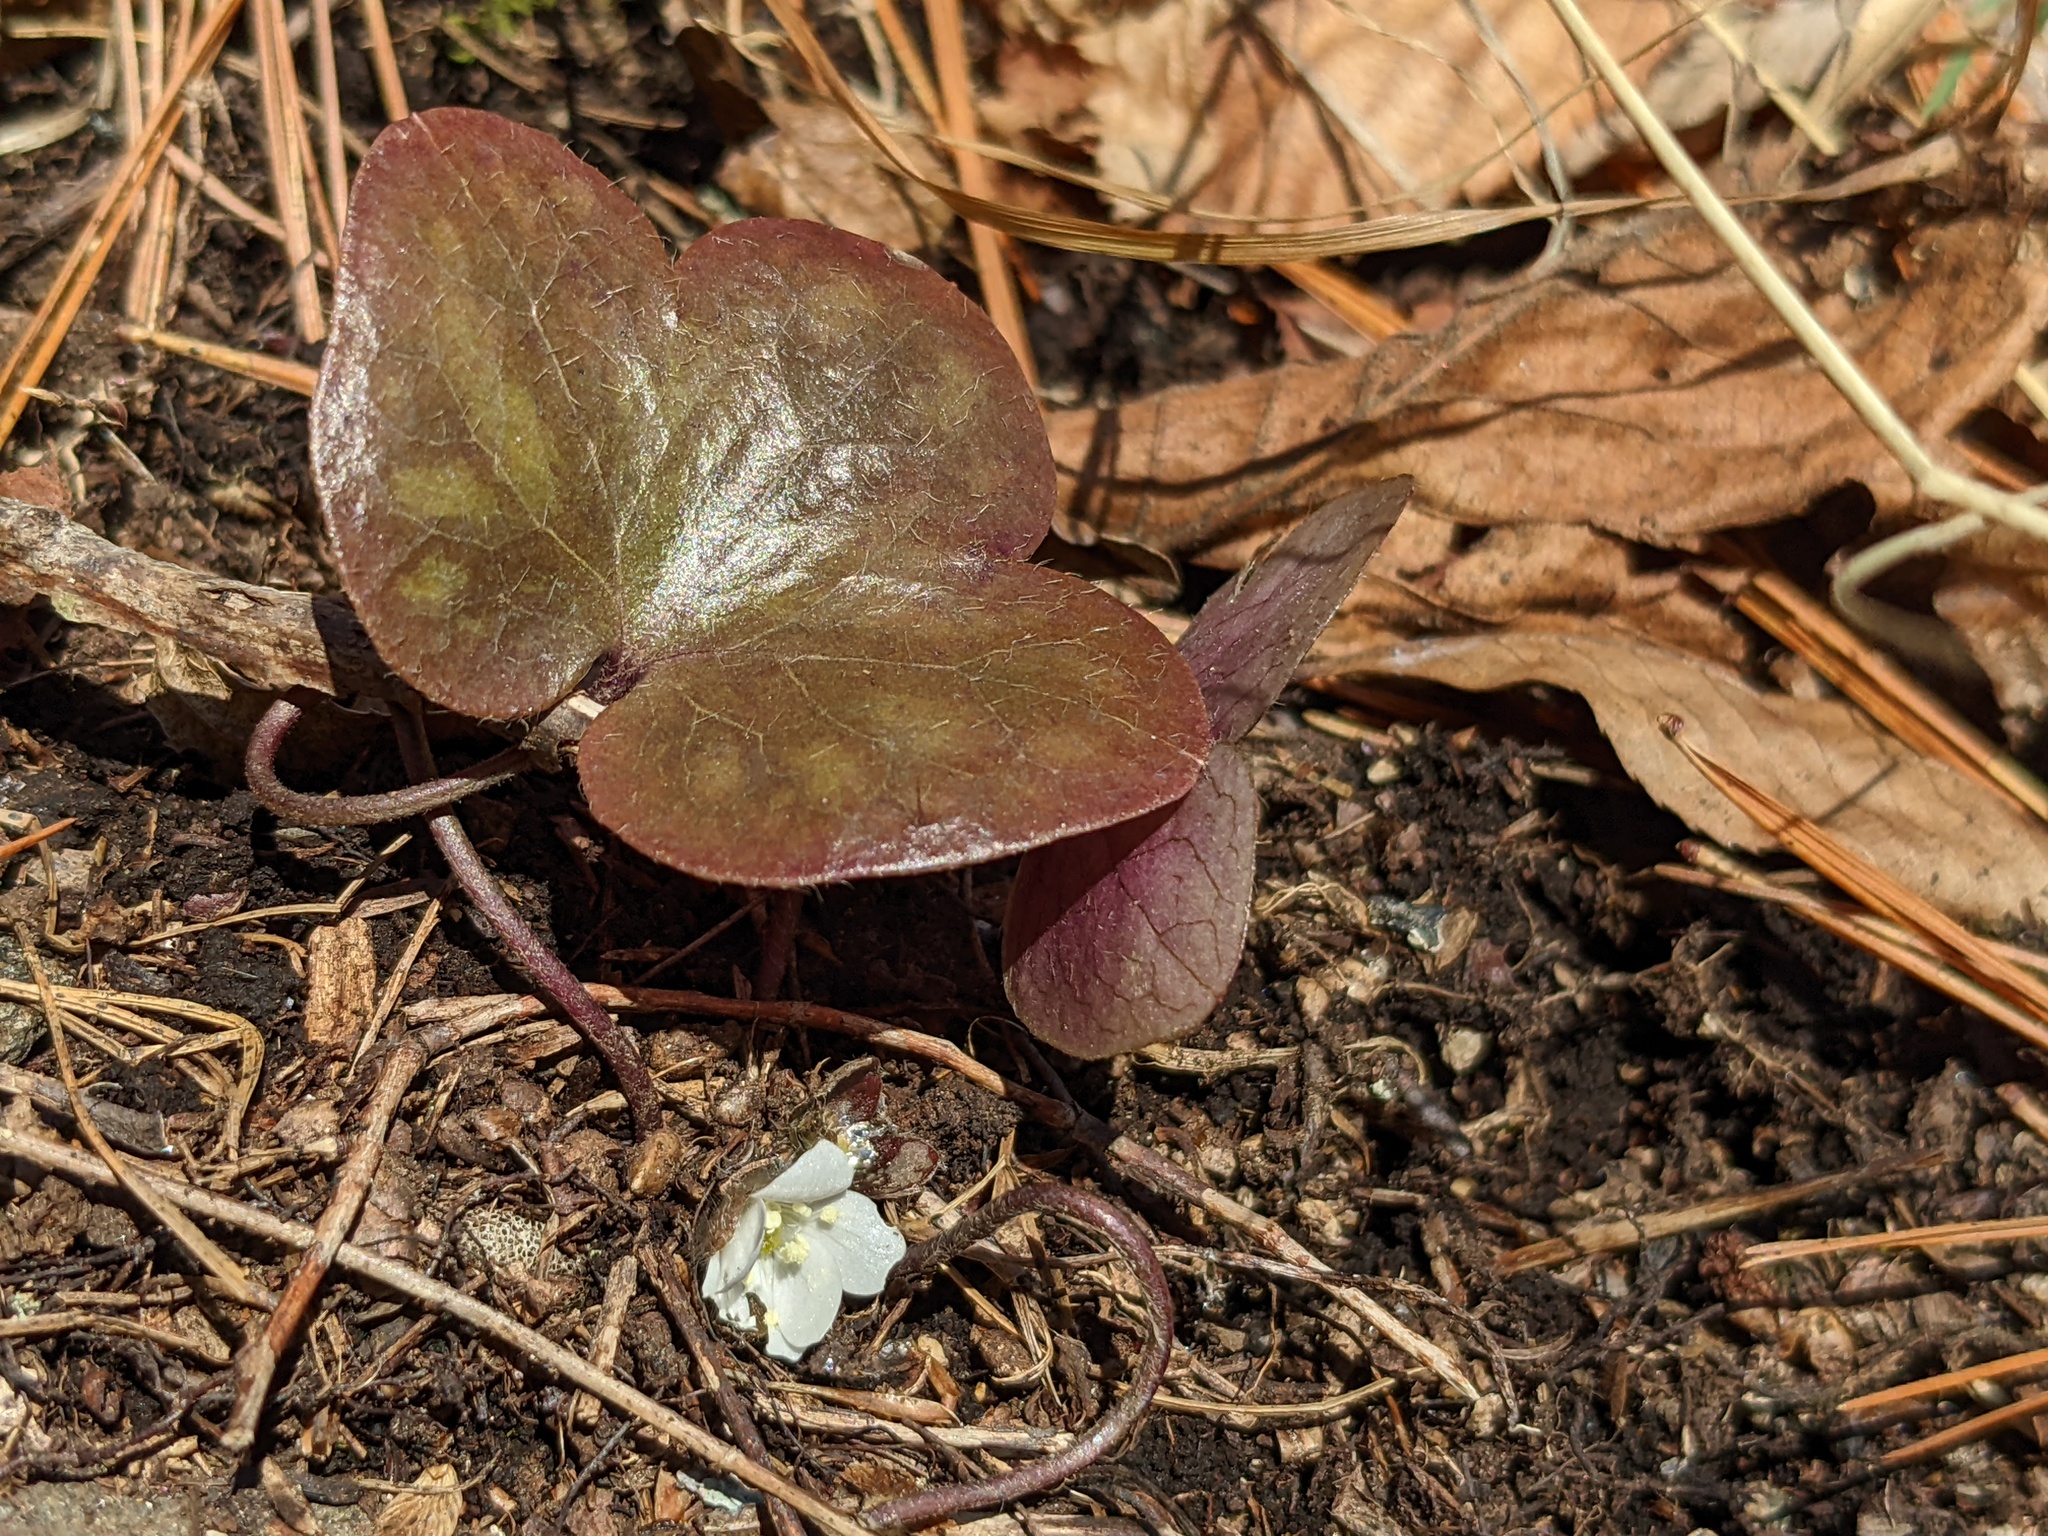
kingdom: Plantae
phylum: Tracheophyta
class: Magnoliopsida
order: Ranunculales
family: Ranunculaceae
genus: Hepatica
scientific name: Hepatica americana
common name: American hepatica
